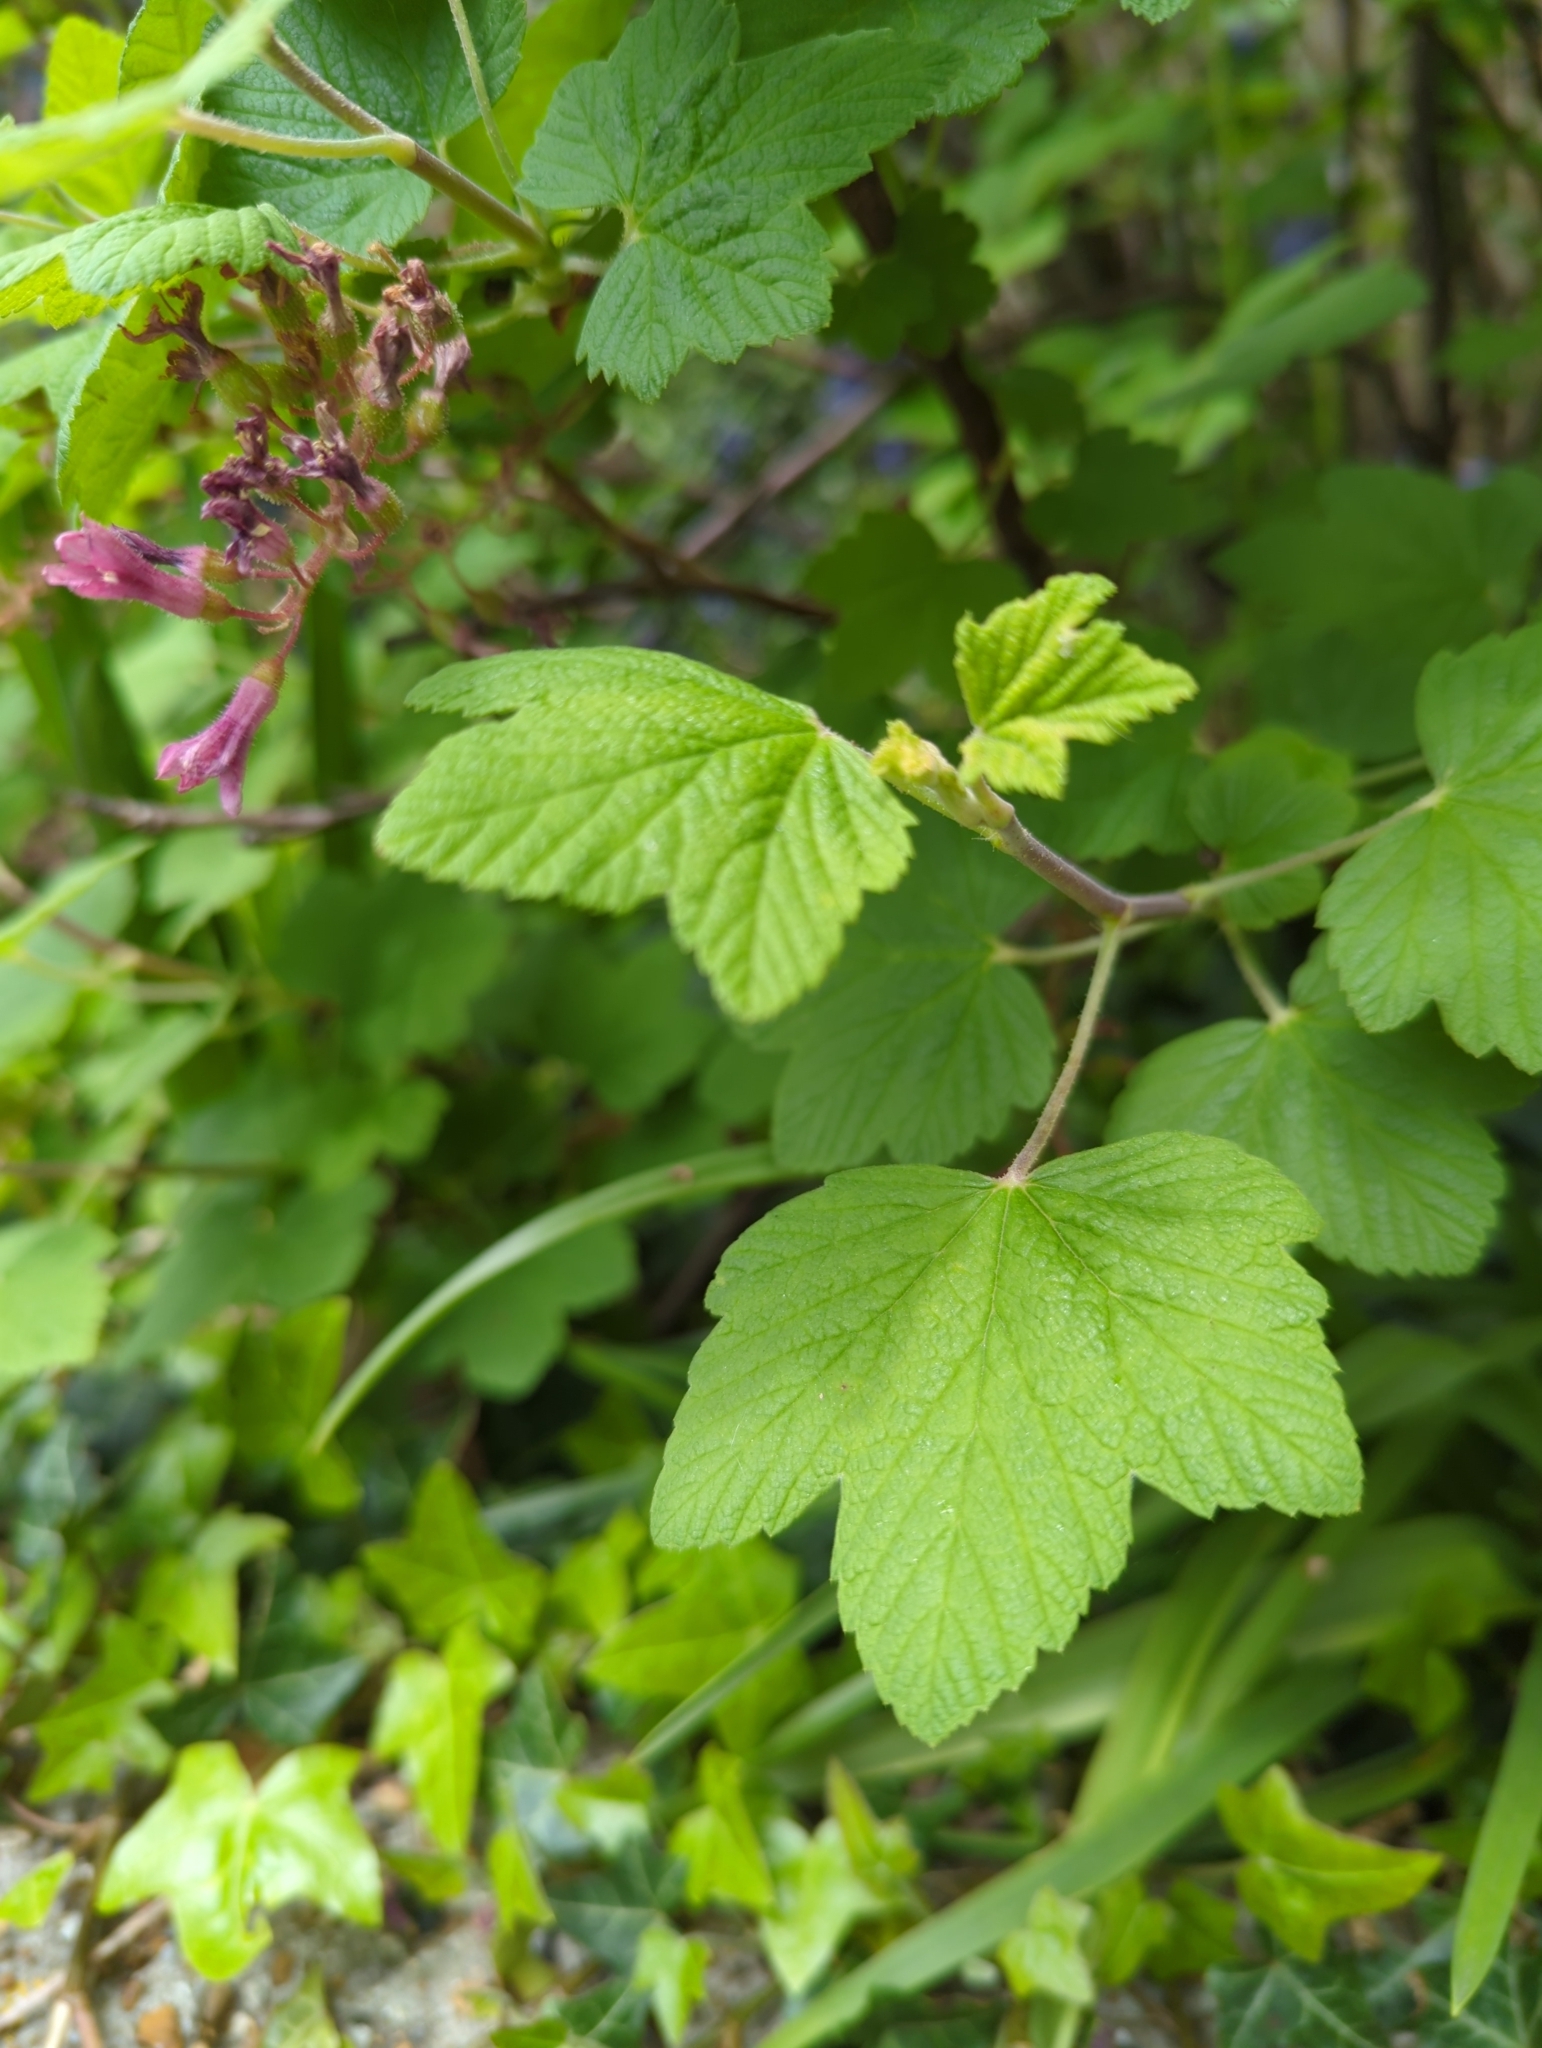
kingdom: Plantae
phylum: Tracheophyta
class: Magnoliopsida
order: Saxifragales
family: Grossulariaceae
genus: Ribes
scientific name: Ribes sanguineum
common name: Flowering currant
